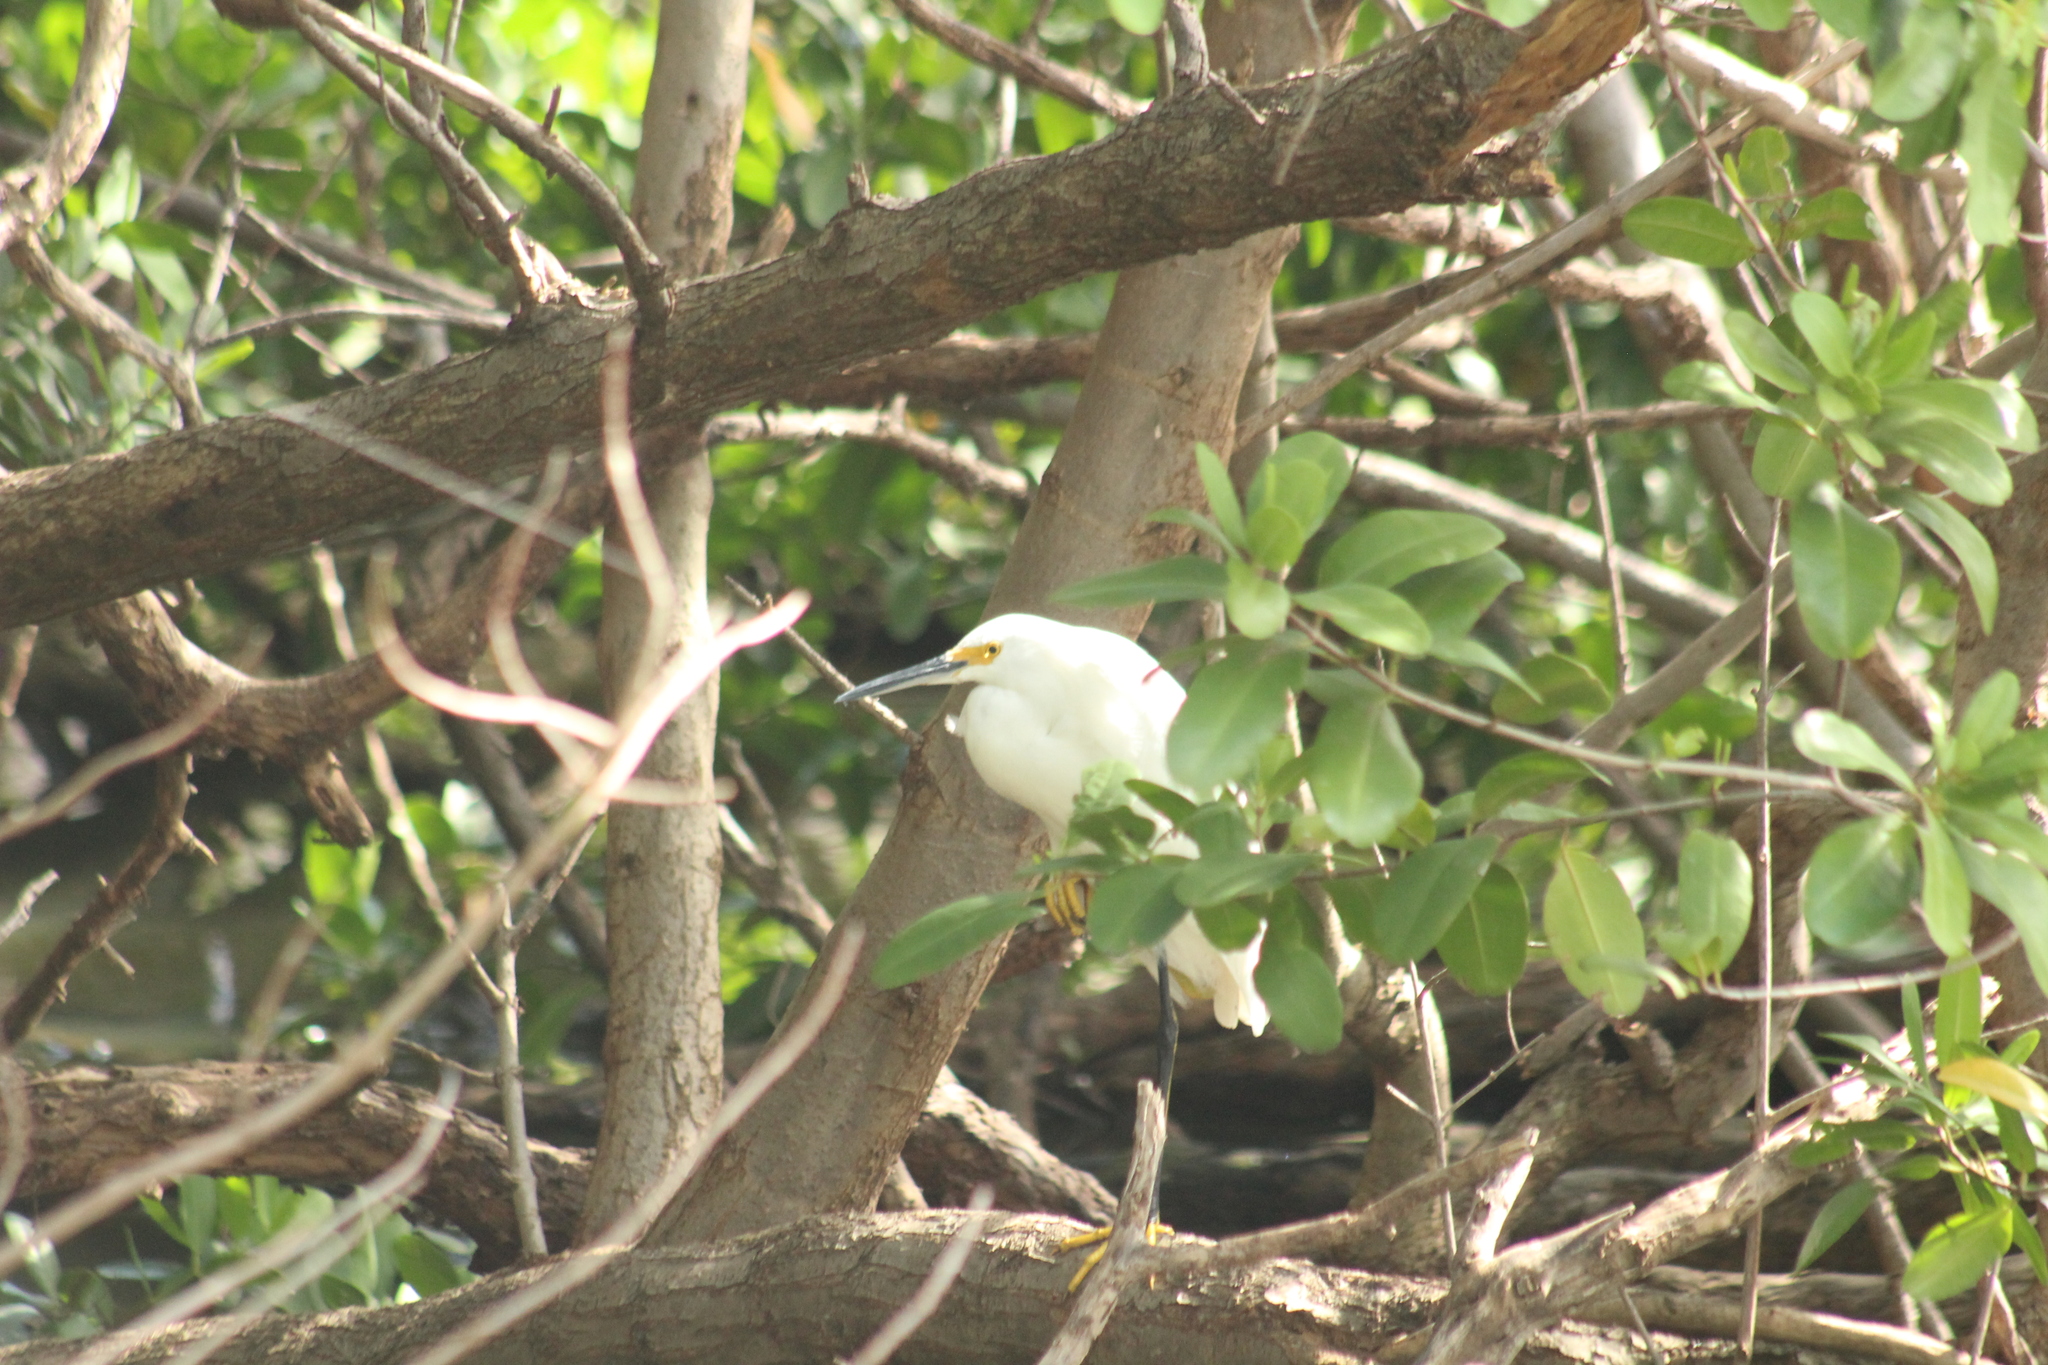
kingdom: Animalia
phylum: Chordata
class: Aves
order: Pelecaniformes
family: Ardeidae
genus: Egretta
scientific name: Egretta thula
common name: Snowy egret
